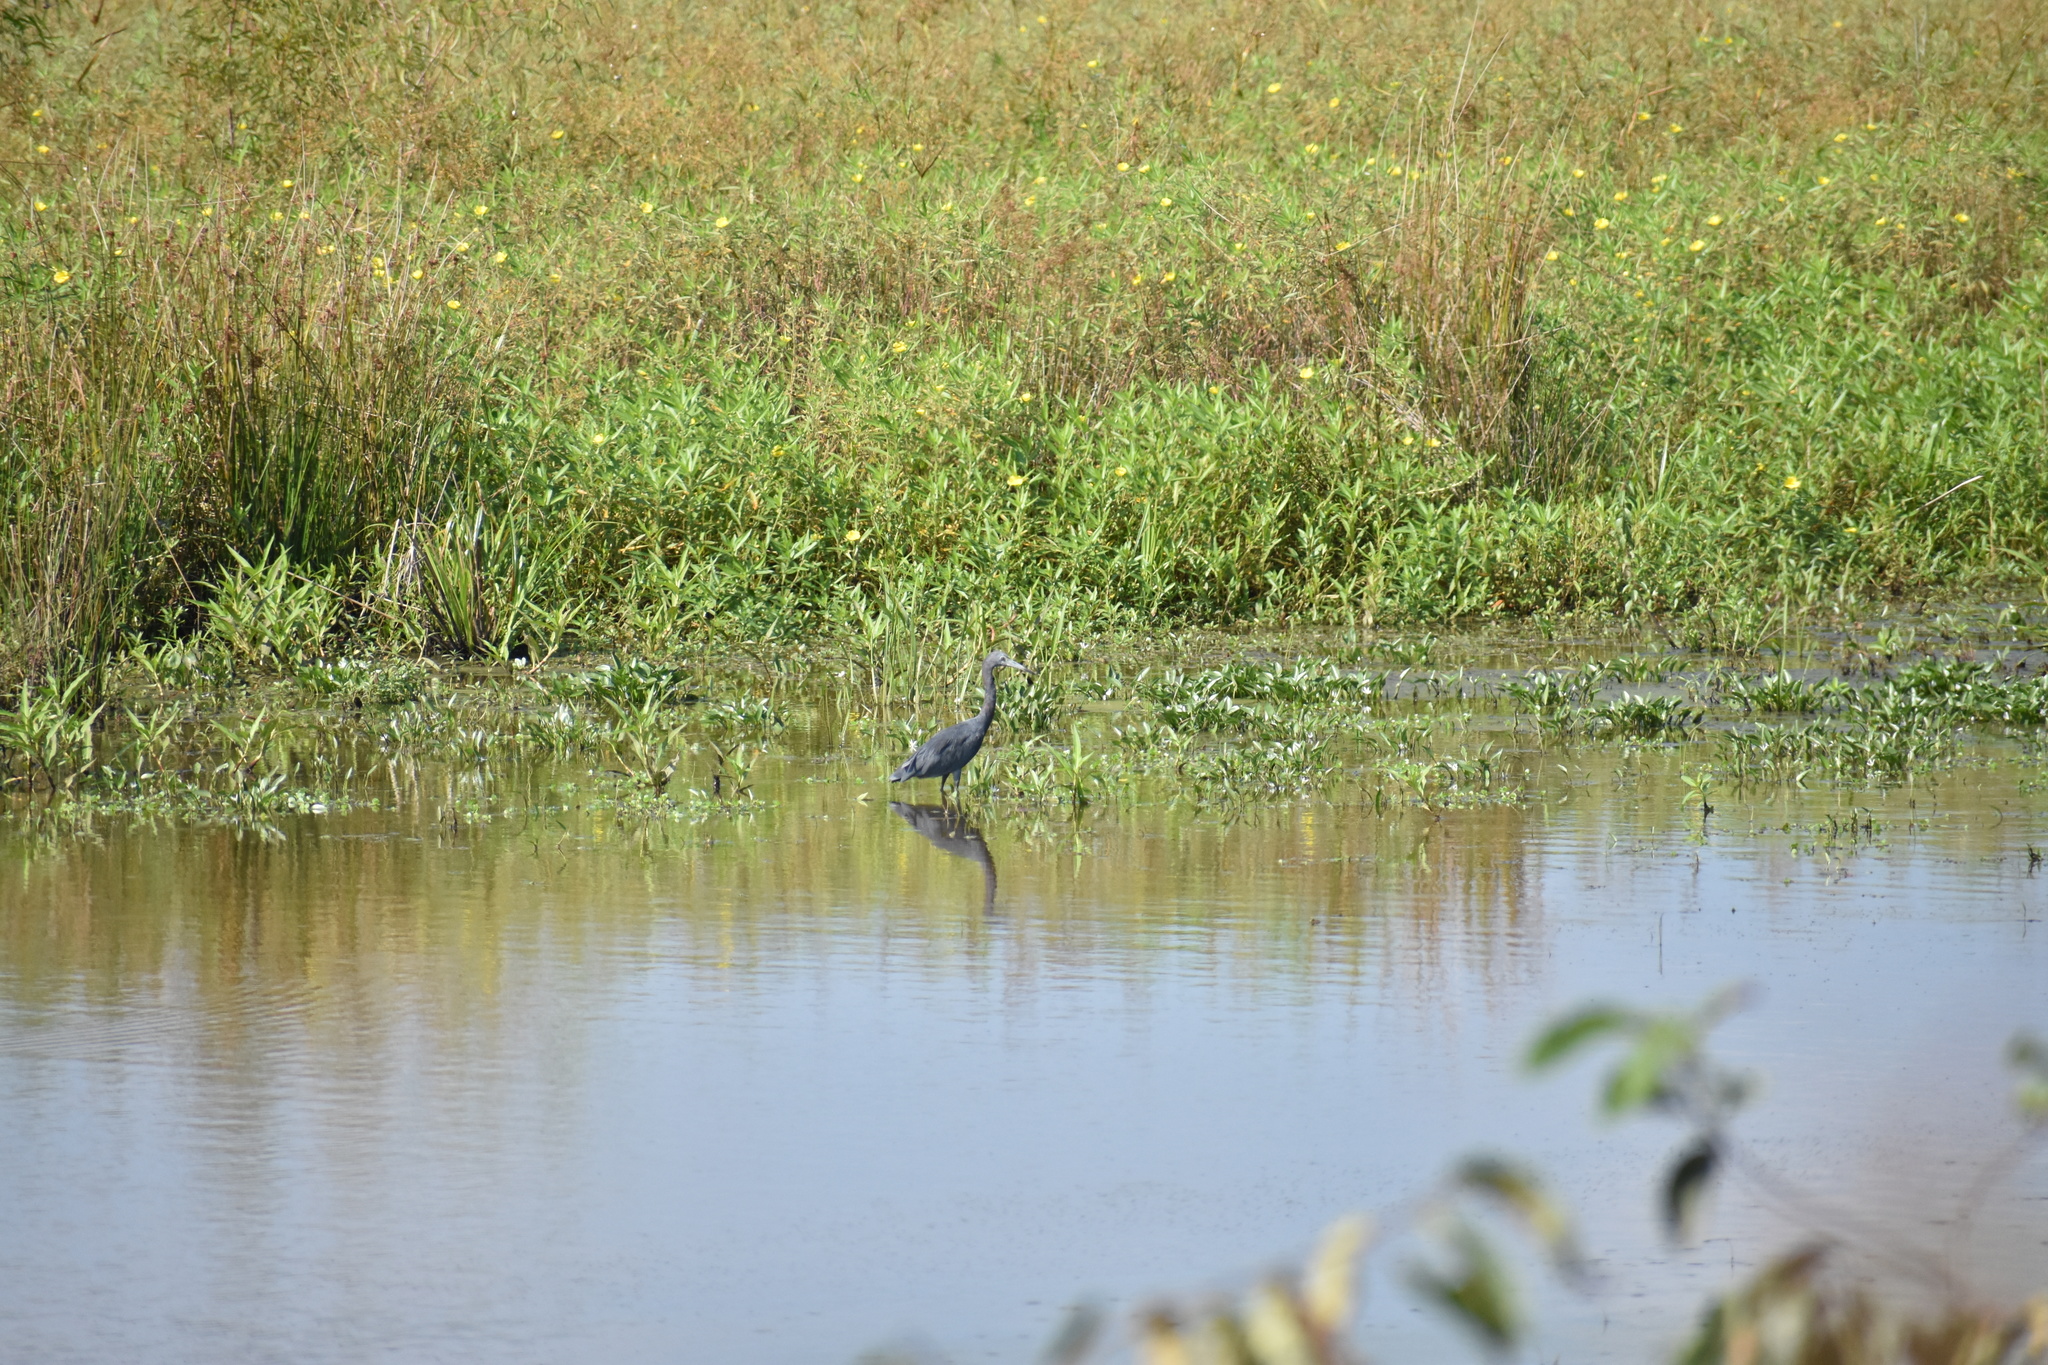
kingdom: Animalia
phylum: Chordata
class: Aves
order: Pelecaniformes
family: Ardeidae
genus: Egretta
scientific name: Egretta caerulea
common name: Little blue heron
